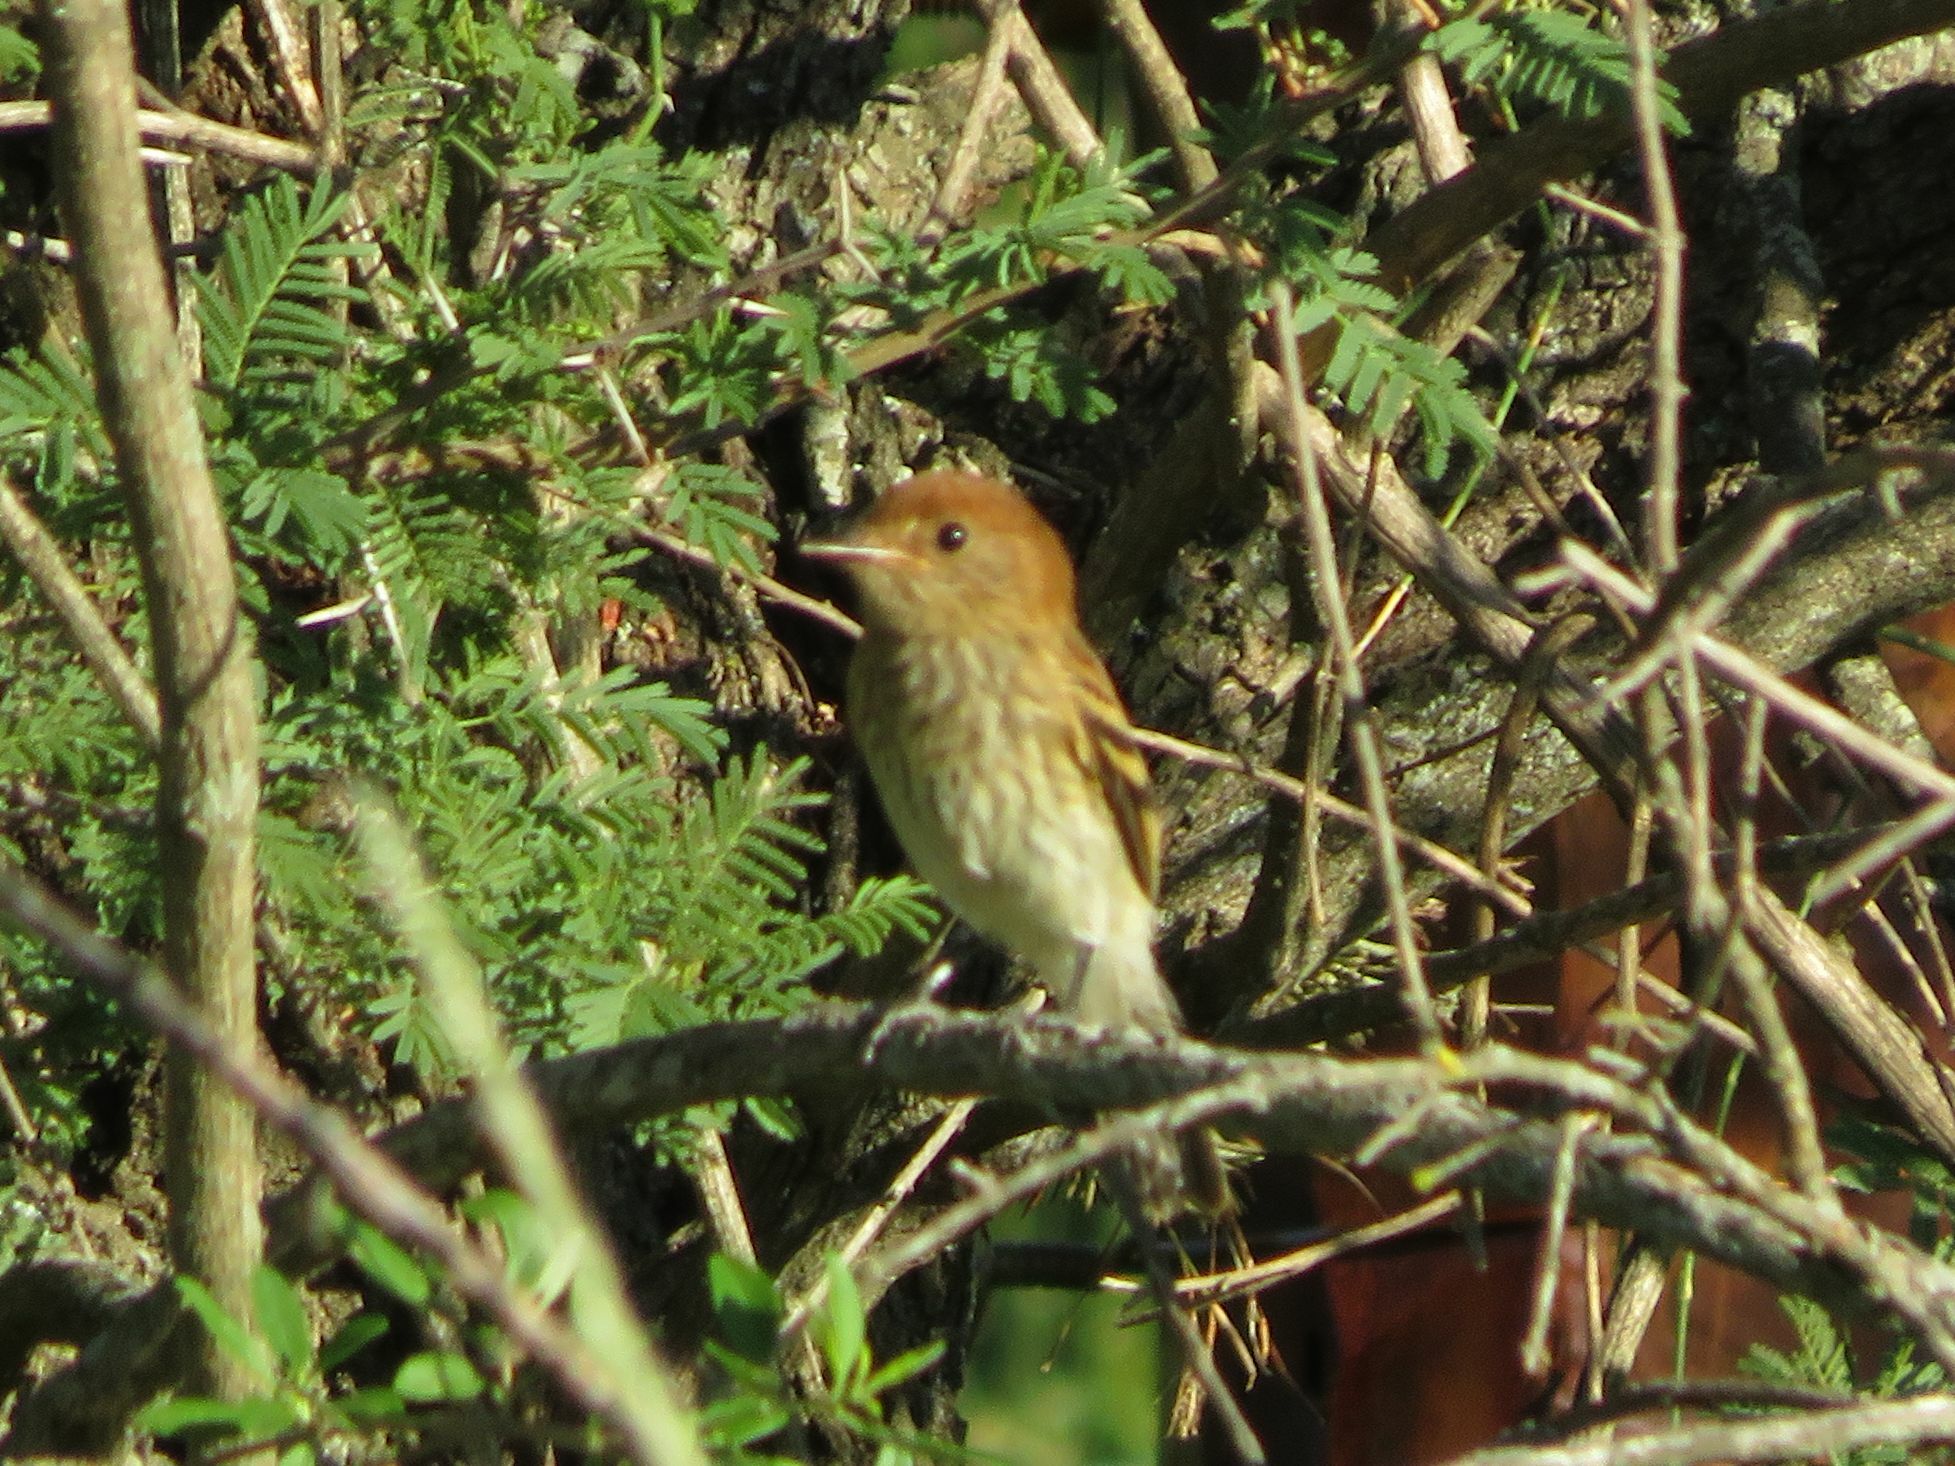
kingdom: Animalia
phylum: Chordata
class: Aves
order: Passeriformes
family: Tyrannidae
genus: Myiophobus
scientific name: Myiophobus fasciatus
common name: Bran-colored flycatcher
